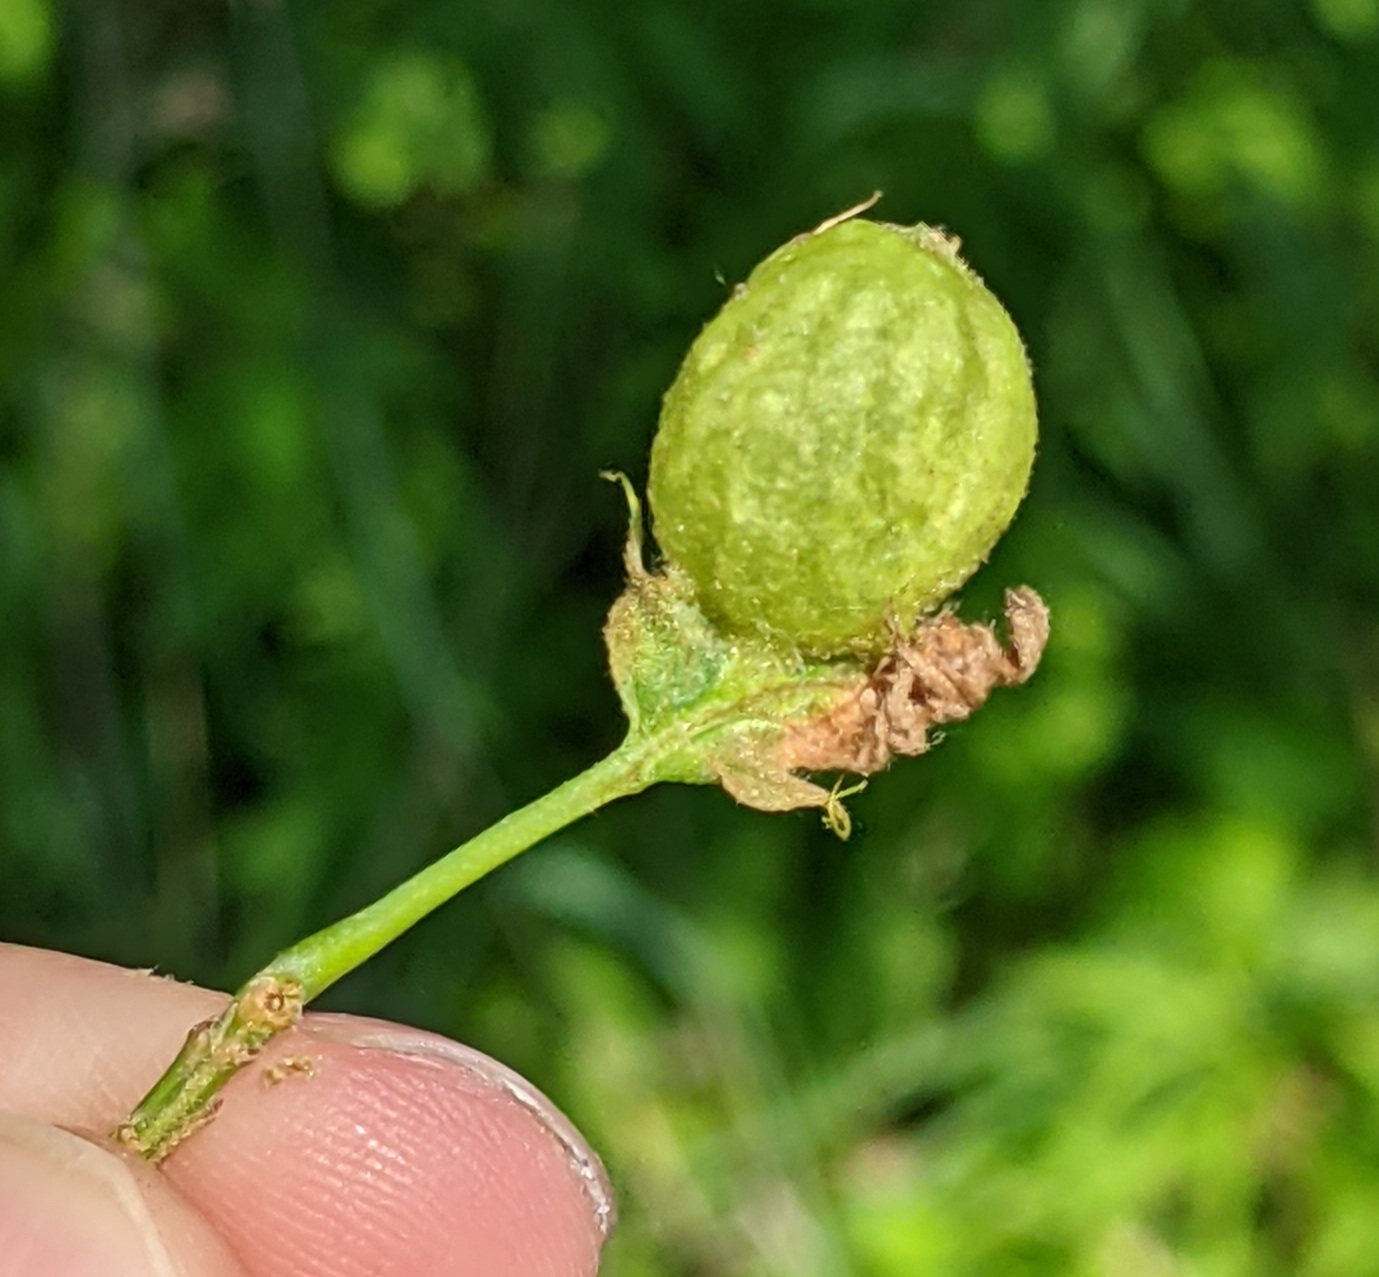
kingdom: Animalia
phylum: Arthropoda
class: Insecta
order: Hymenoptera
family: Cynipidae
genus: Dryocosmus
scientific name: Dryocosmus quercuspalustris
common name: Succulent oak gall wasp
